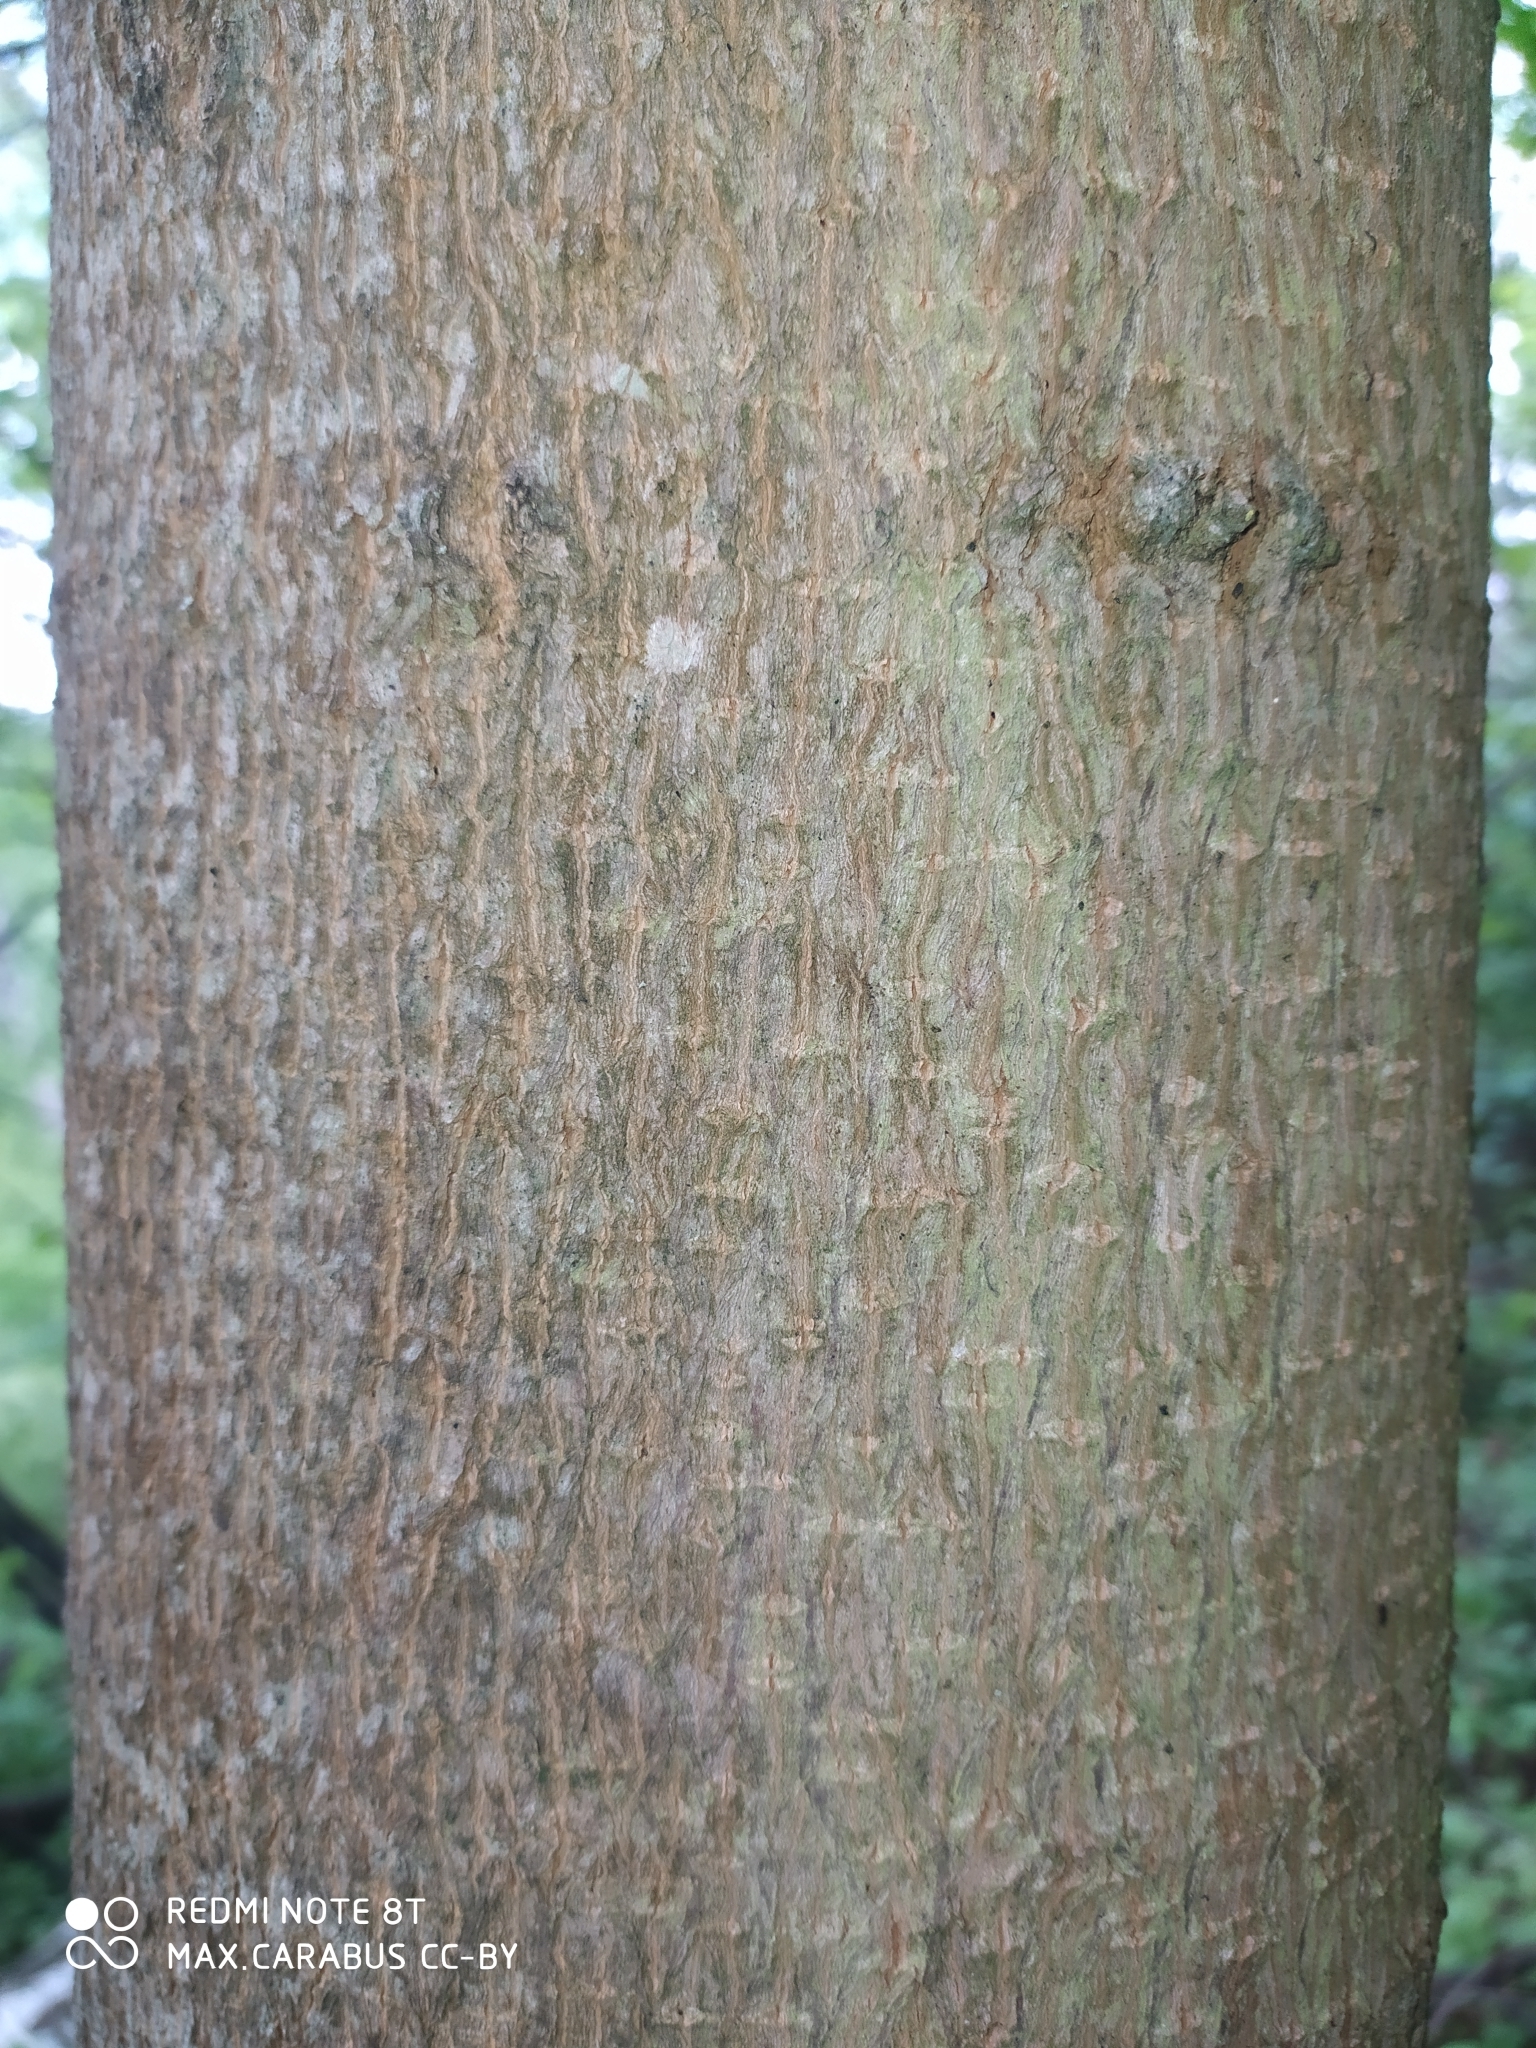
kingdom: Plantae
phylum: Tracheophyta
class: Magnoliopsida
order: Sapindales
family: Sapindaceae
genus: Acer
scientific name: Acer platanoides
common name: Norway maple
